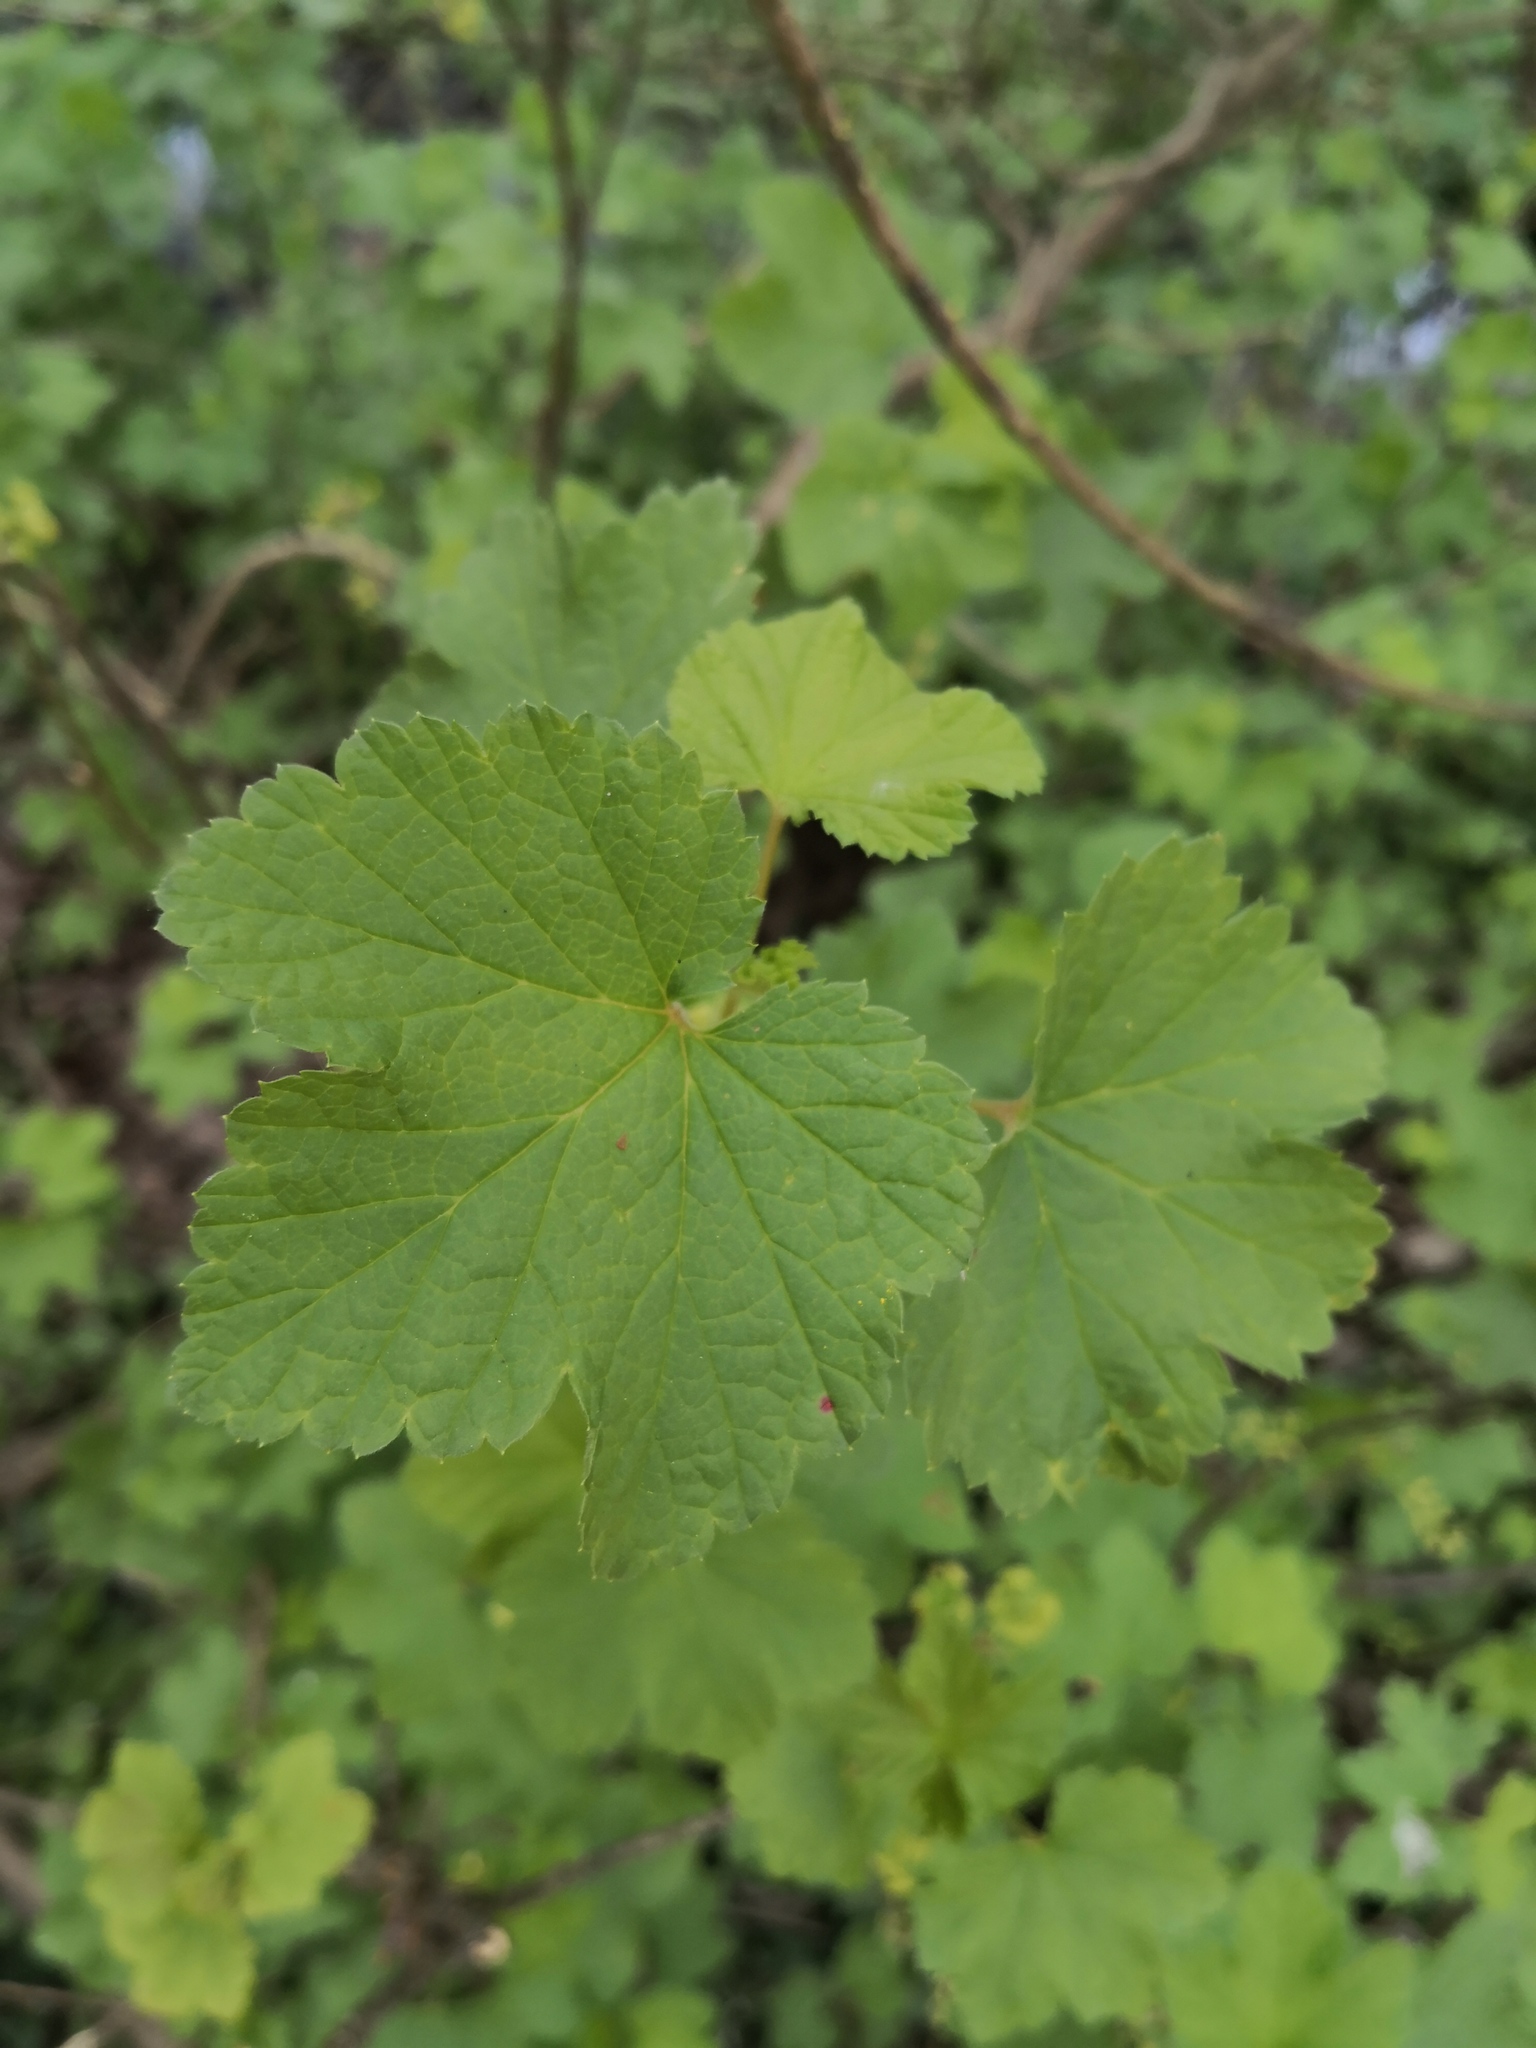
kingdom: Plantae
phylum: Tracheophyta
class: Magnoliopsida
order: Saxifragales
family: Grossulariaceae
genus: Ribes
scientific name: Ribes rubrum
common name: Red currant
